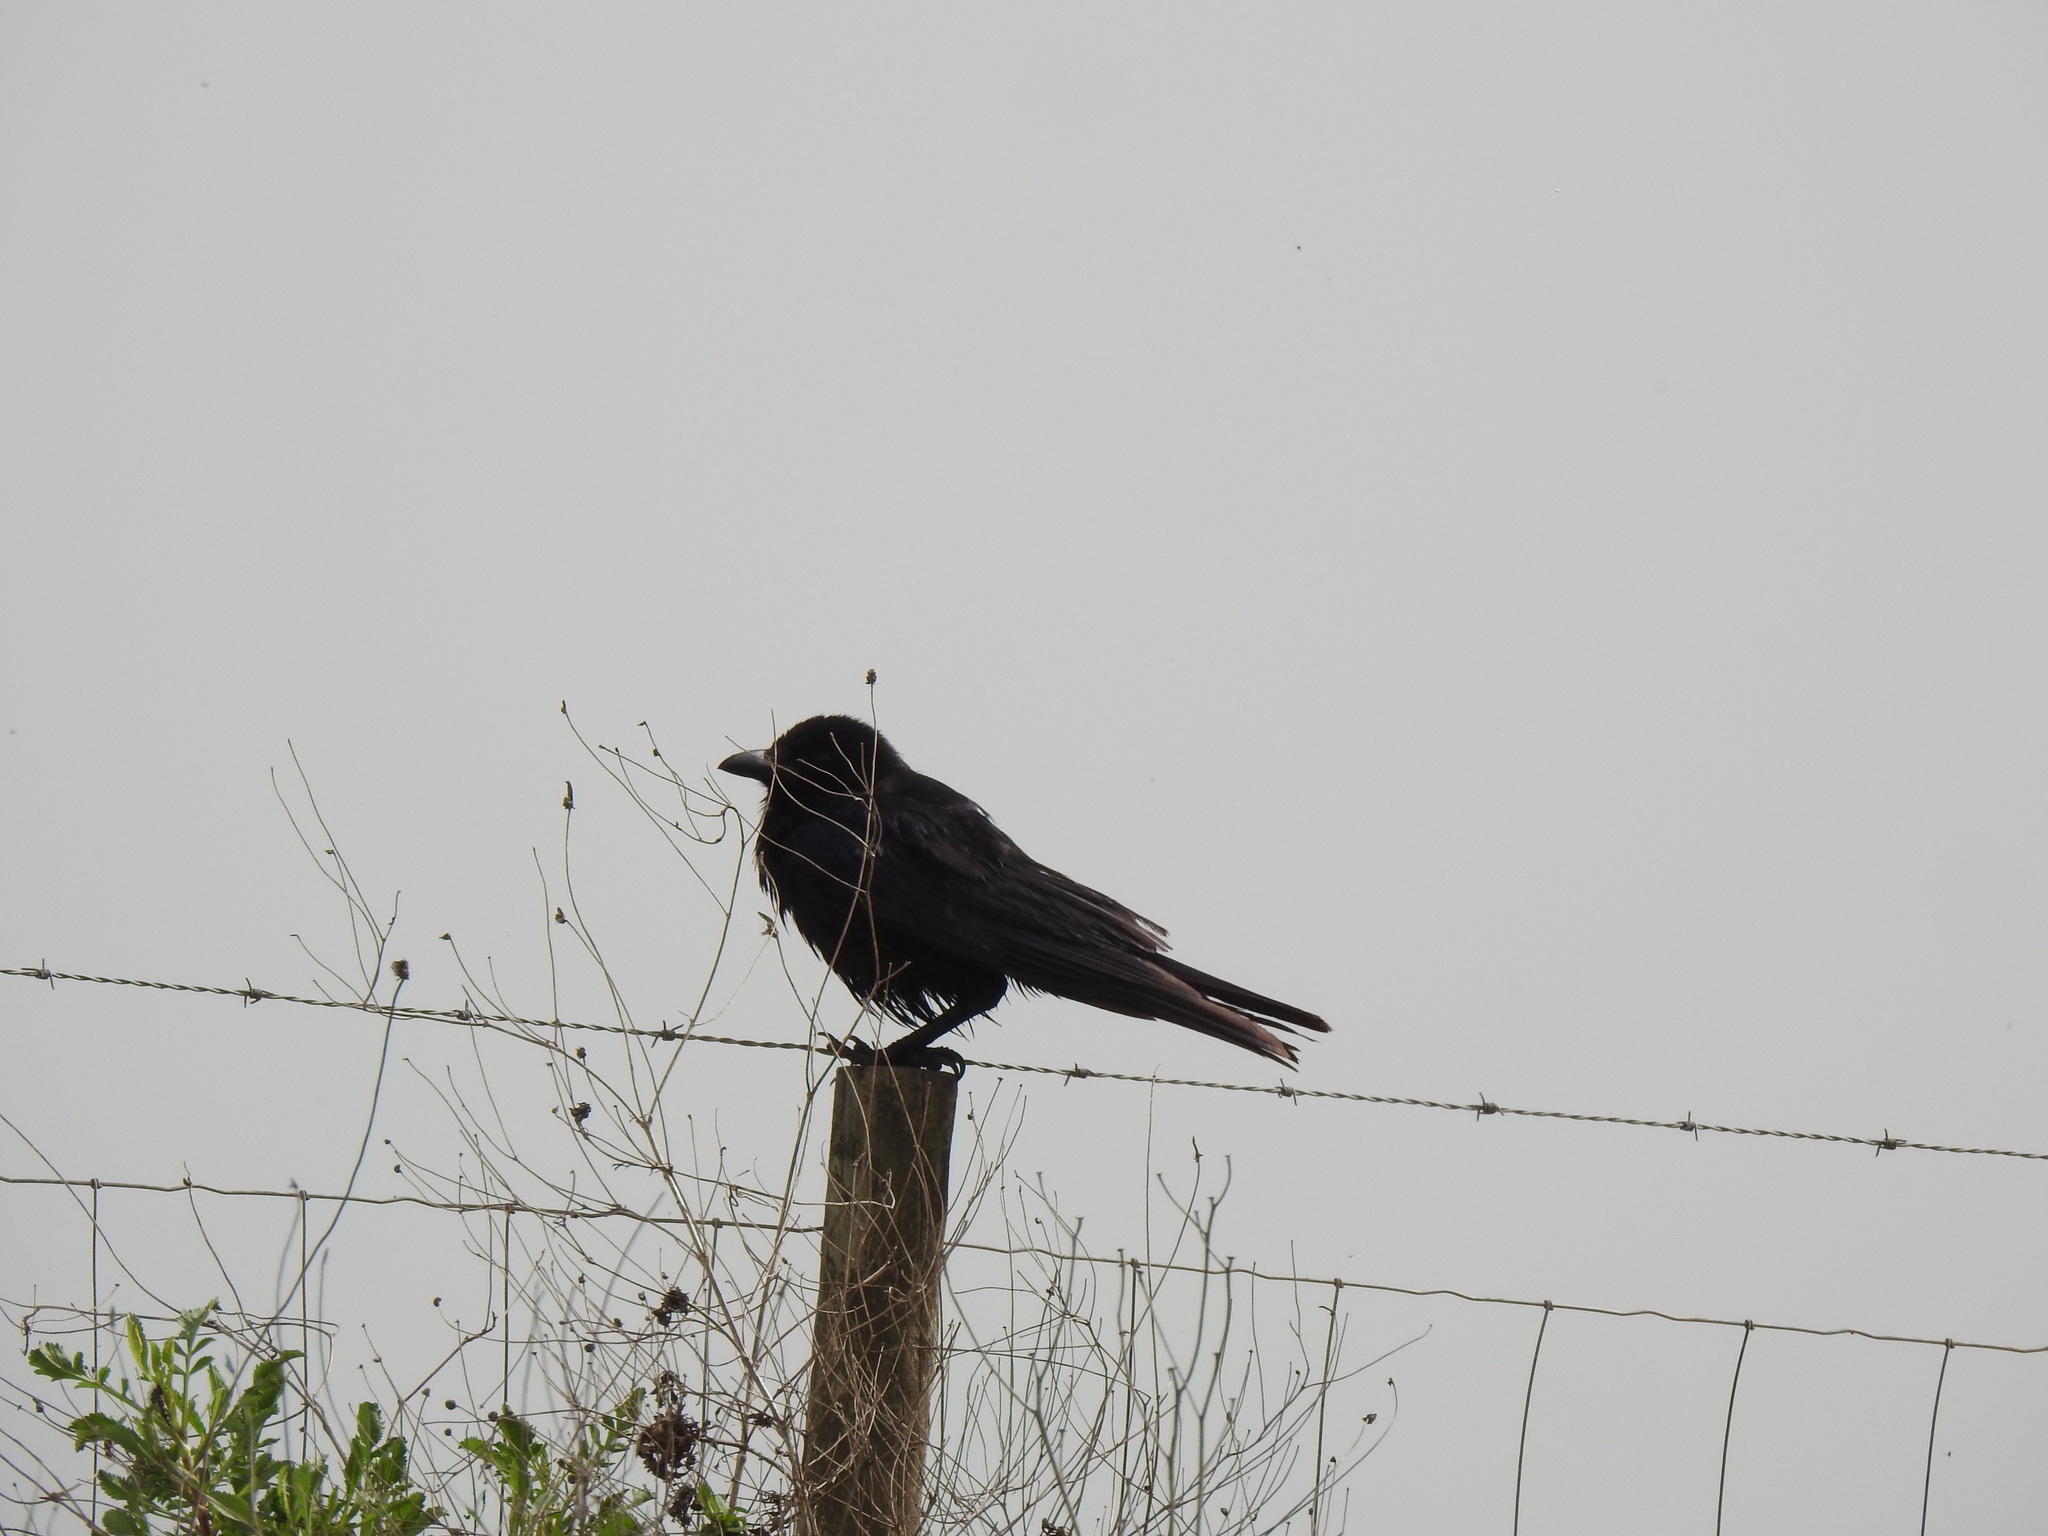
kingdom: Animalia
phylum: Chordata
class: Aves
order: Passeriformes
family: Corvidae
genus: Corvus
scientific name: Corvus corone
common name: Carrion crow
